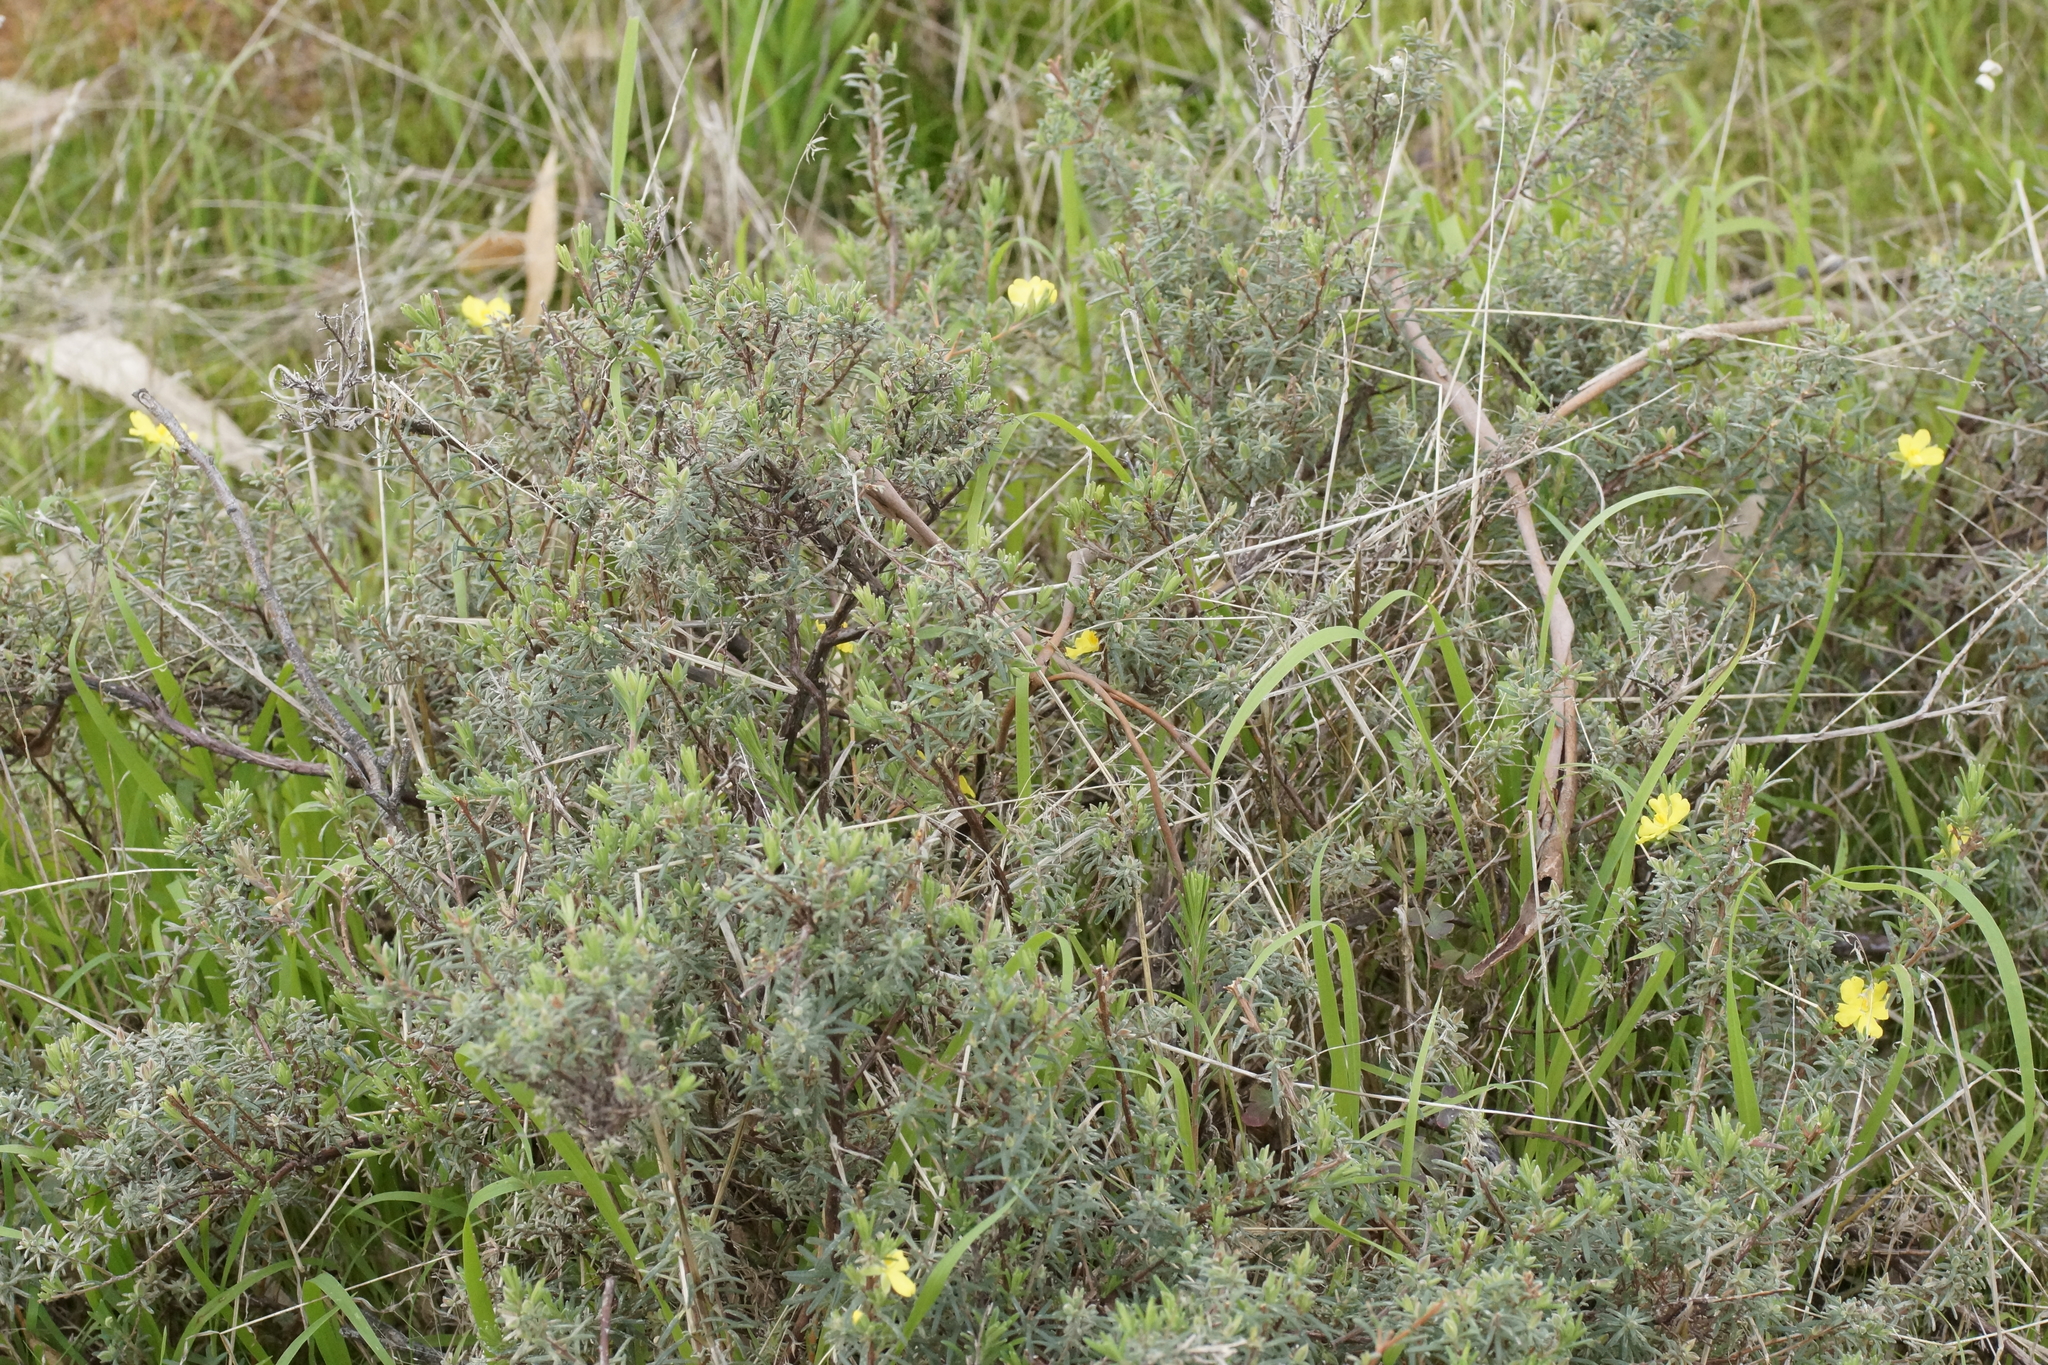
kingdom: Plantae
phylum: Tracheophyta
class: Magnoliopsida
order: Dilleniales
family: Dilleniaceae
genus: Hibbertia
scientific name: Hibbertia riparia
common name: Erect guinea-flower
